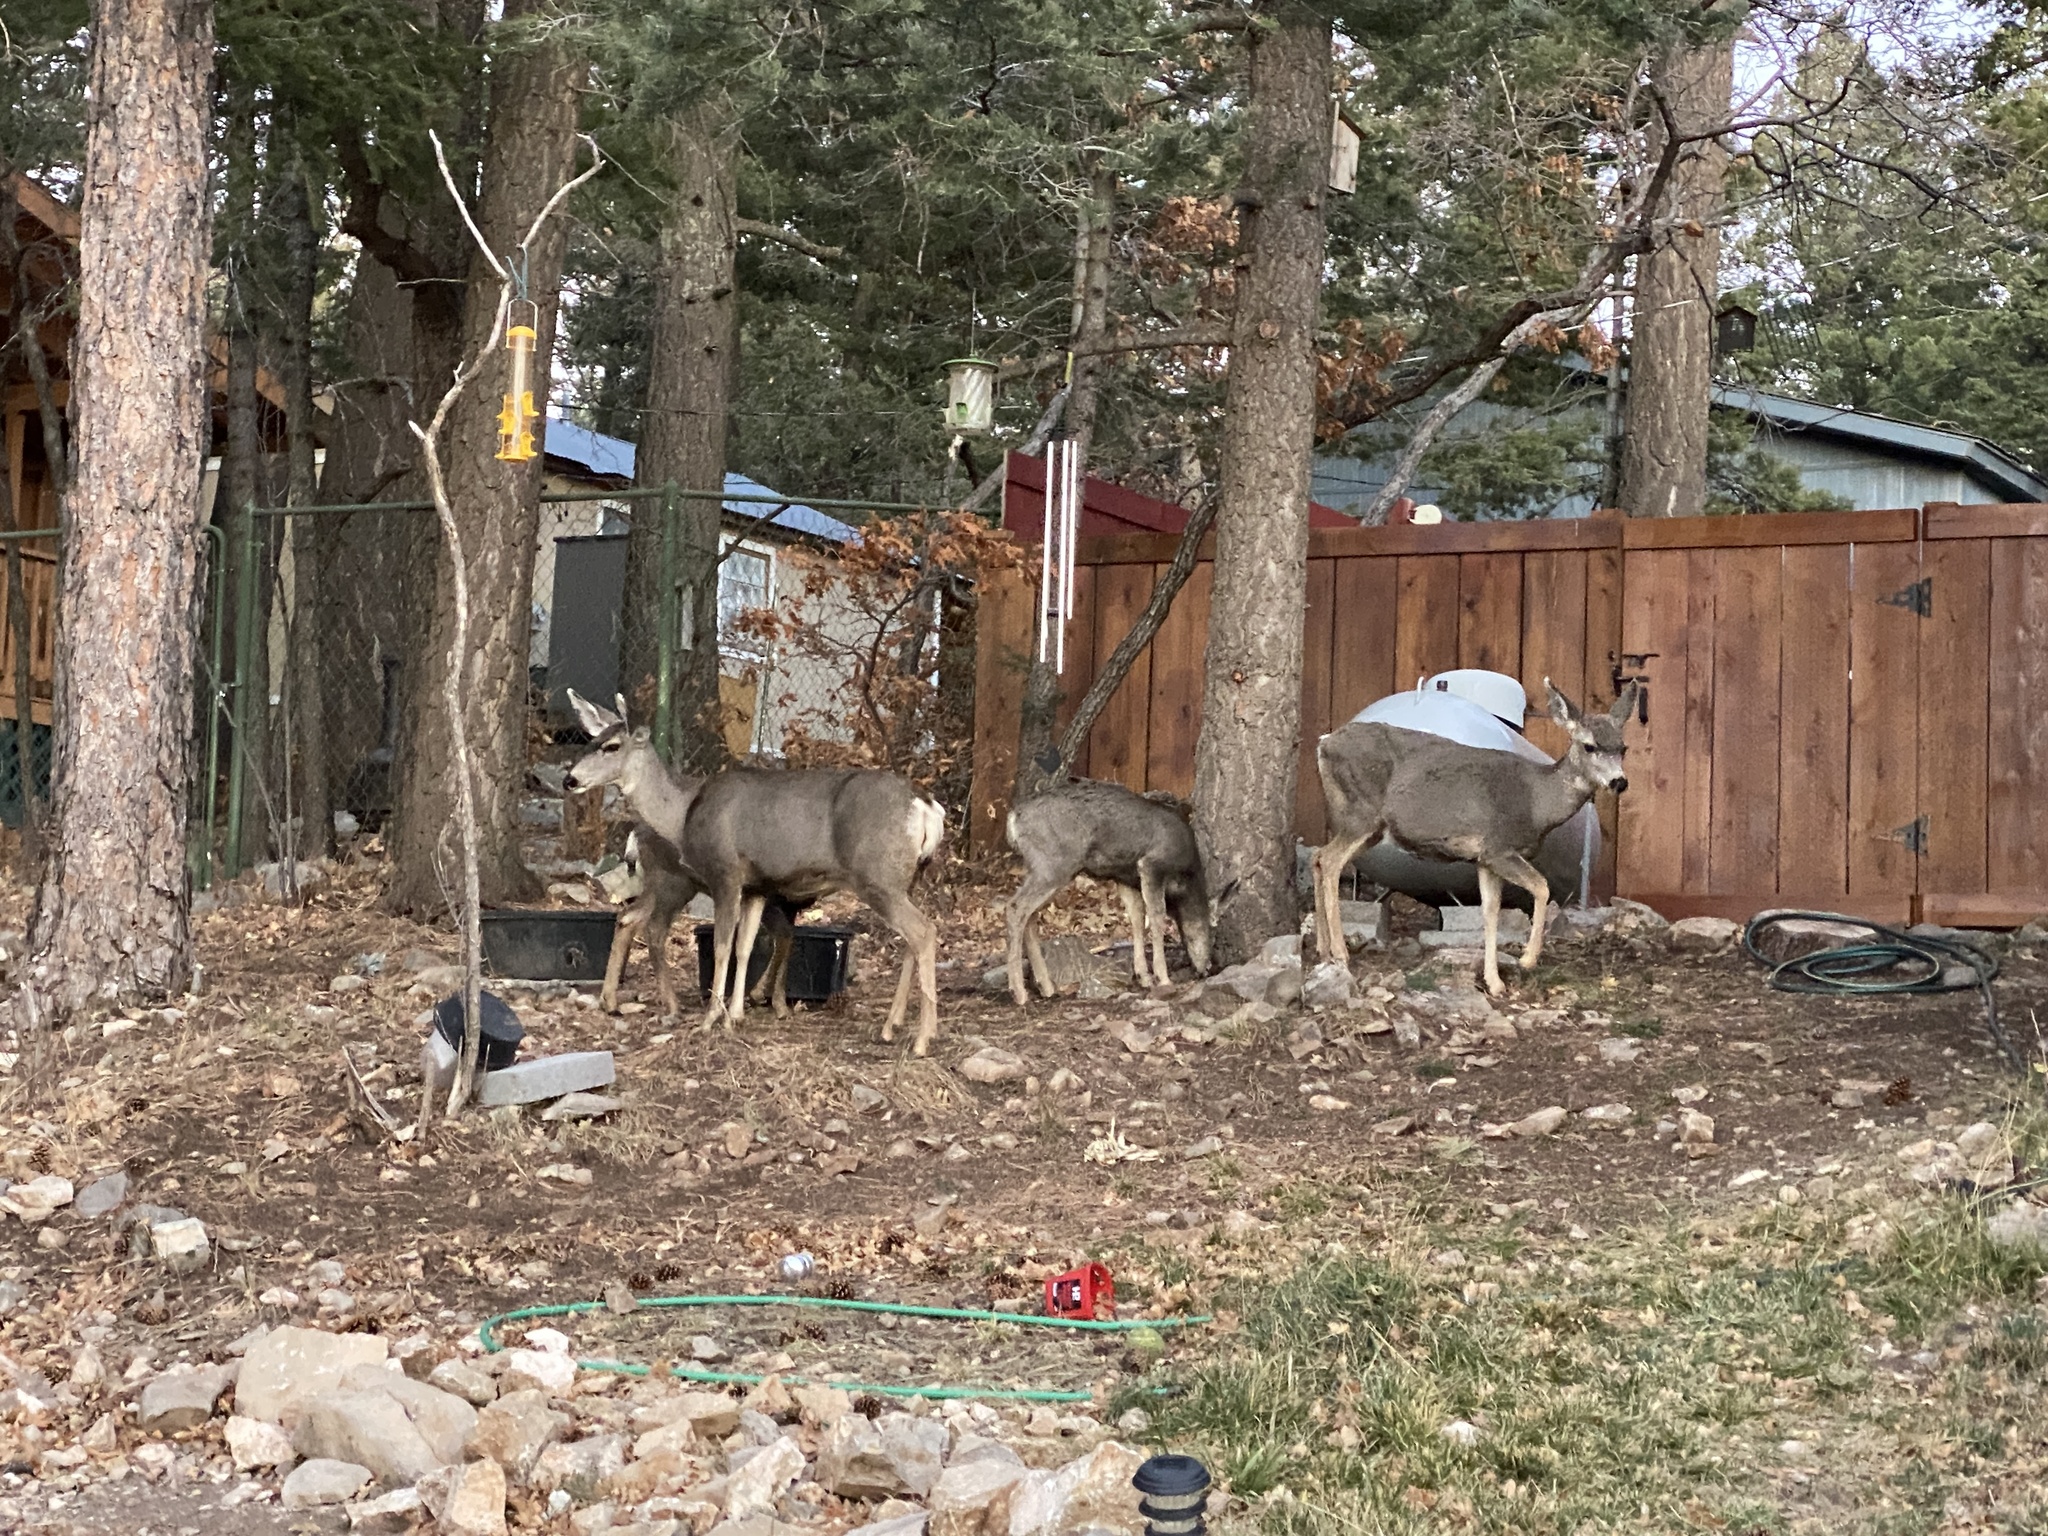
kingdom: Animalia
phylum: Chordata
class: Mammalia
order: Artiodactyla
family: Cervidae
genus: Odocoileus
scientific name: Odocoileus hemionus
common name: Mule deer
